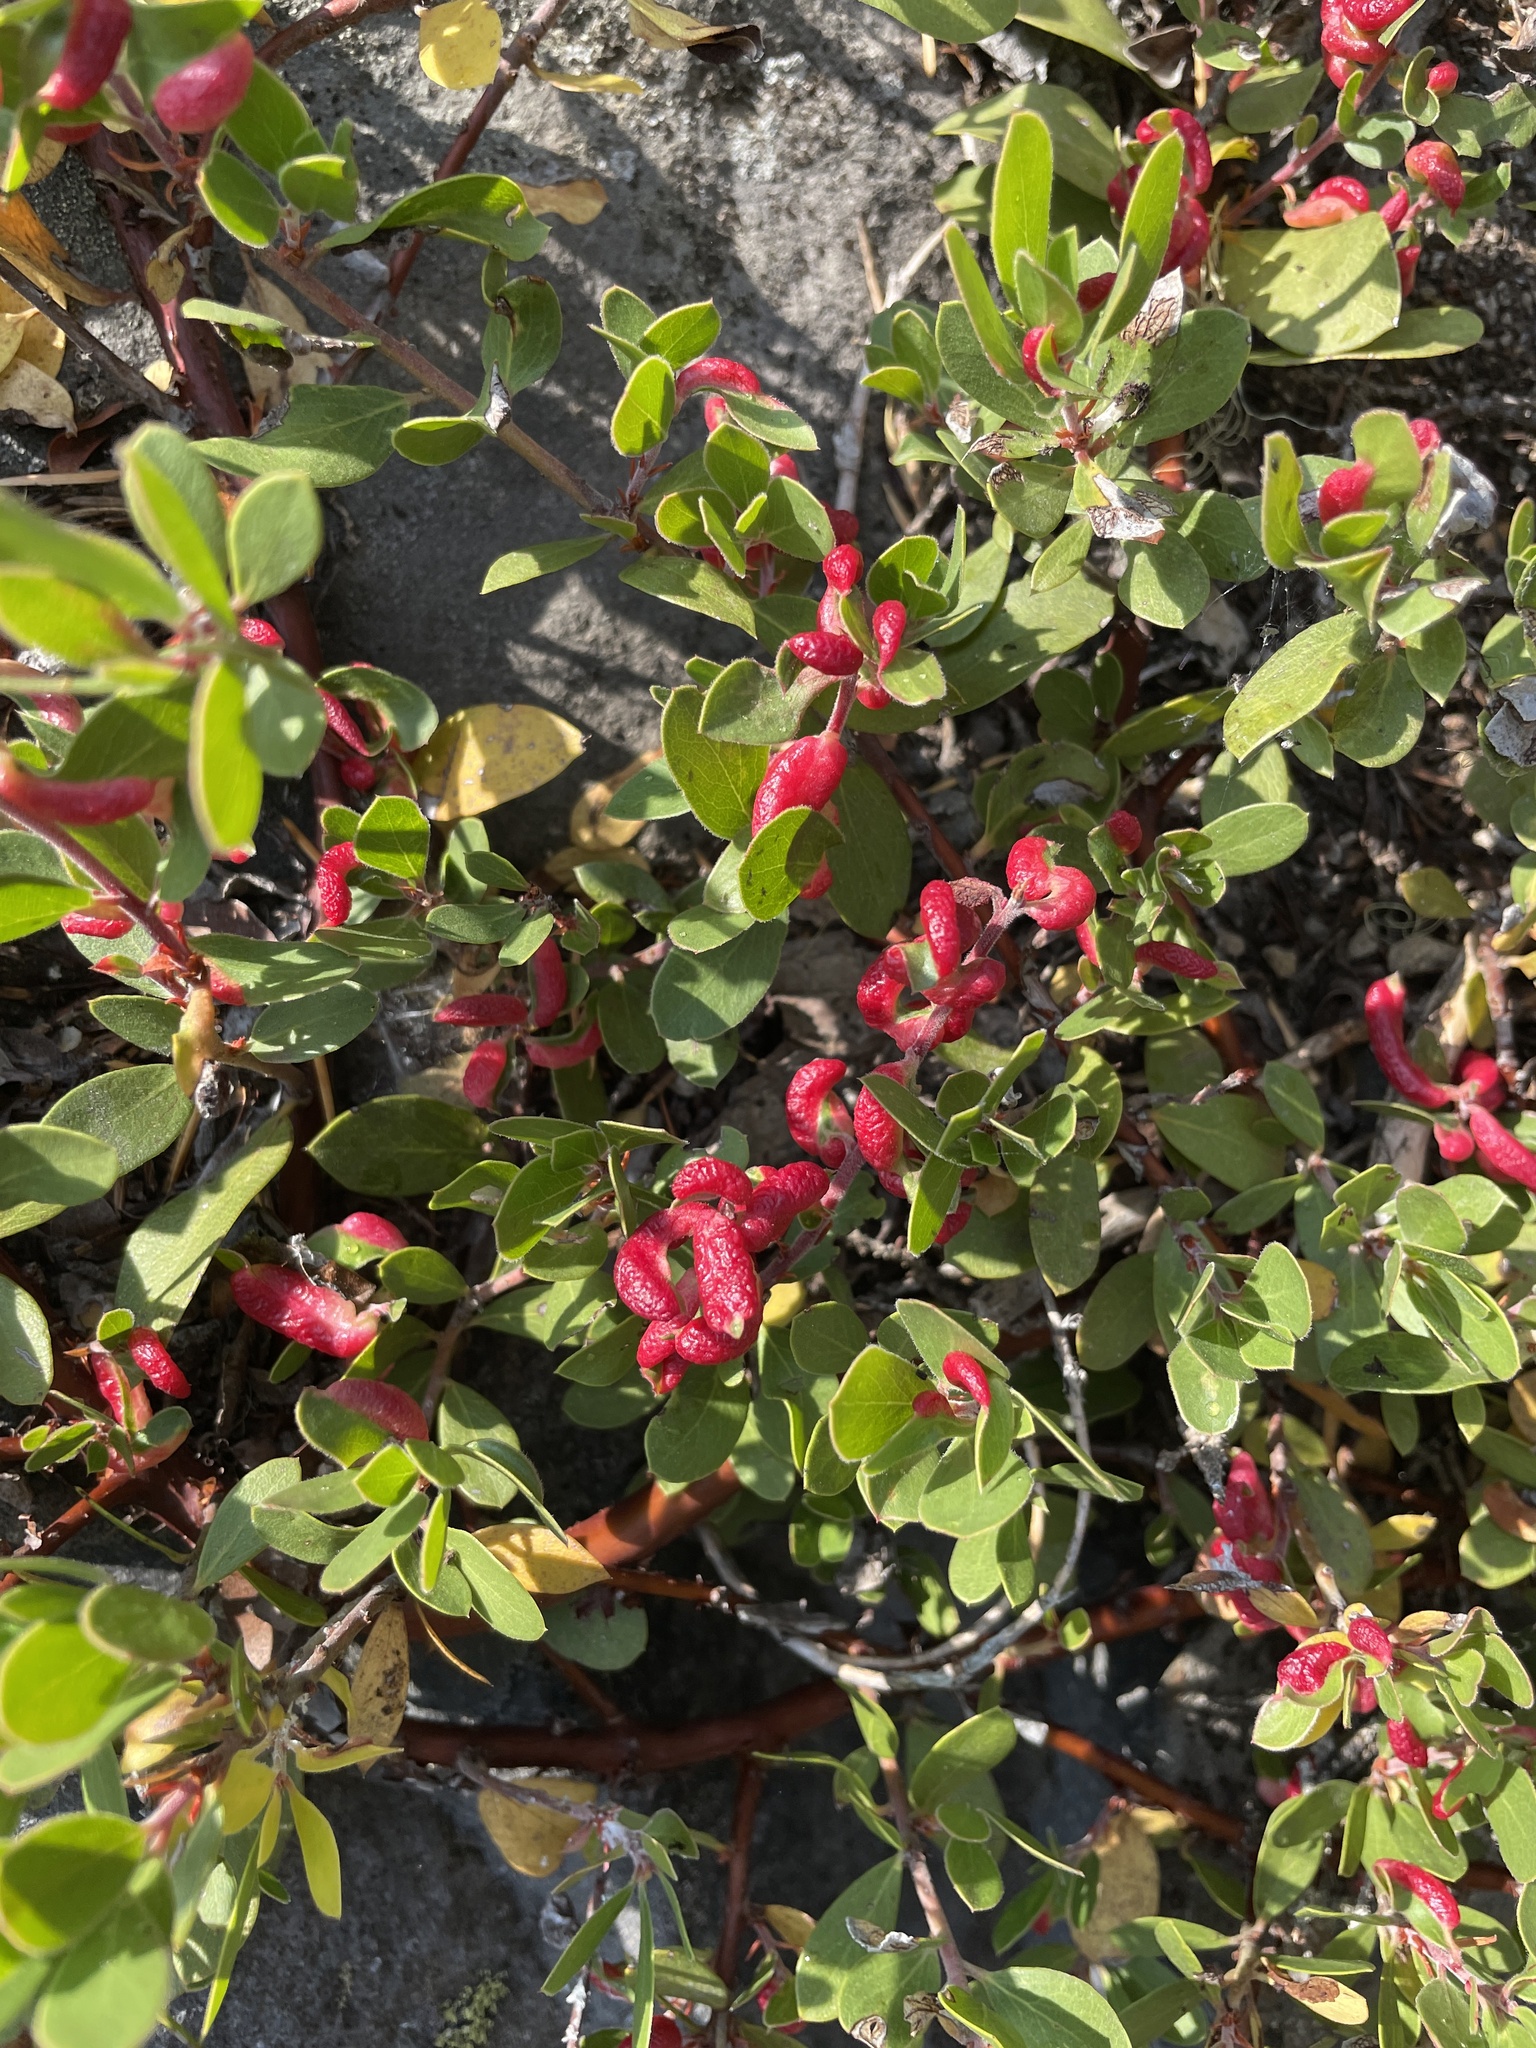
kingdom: Animalia
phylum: Arthropoda
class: Insecta
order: Hemiptera
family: Aphididae
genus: Tamalia
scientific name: Tamalia coweni
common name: Manzanita leafgall aphid
